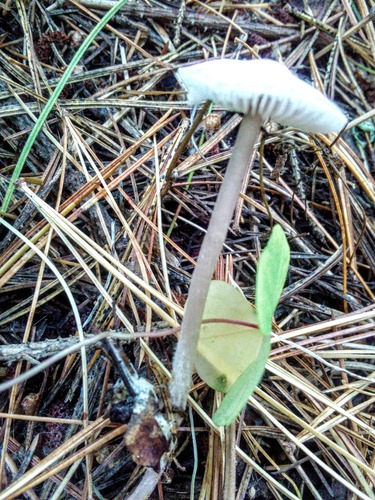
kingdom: Fungi
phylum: Basidiomycota
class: Agaricomycetes
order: Agaricales
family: Mycenaceae
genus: Mycena
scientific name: Mycena
